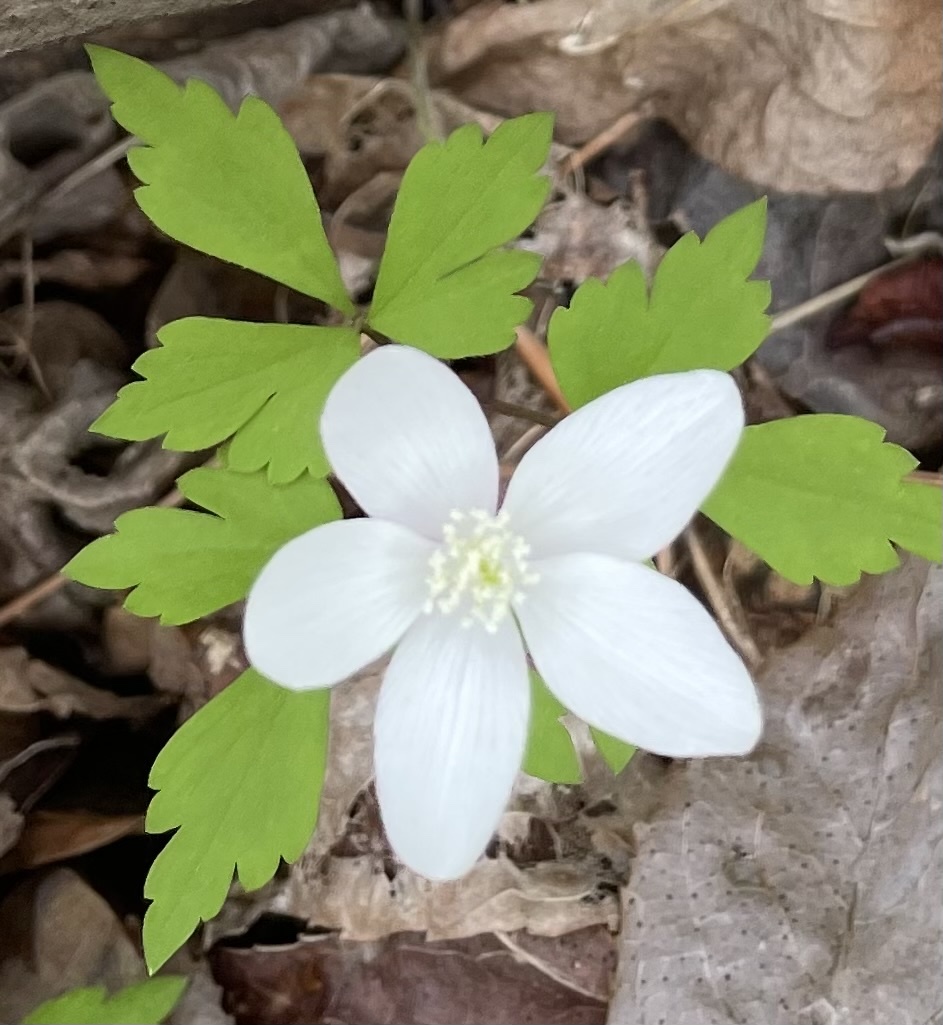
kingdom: Plantae
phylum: Tracheophyta
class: Magnoliopsida
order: Ranunculales
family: Ranunculaceae
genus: Anemone
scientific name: Anemone quinquefolia
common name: Wood anemone
